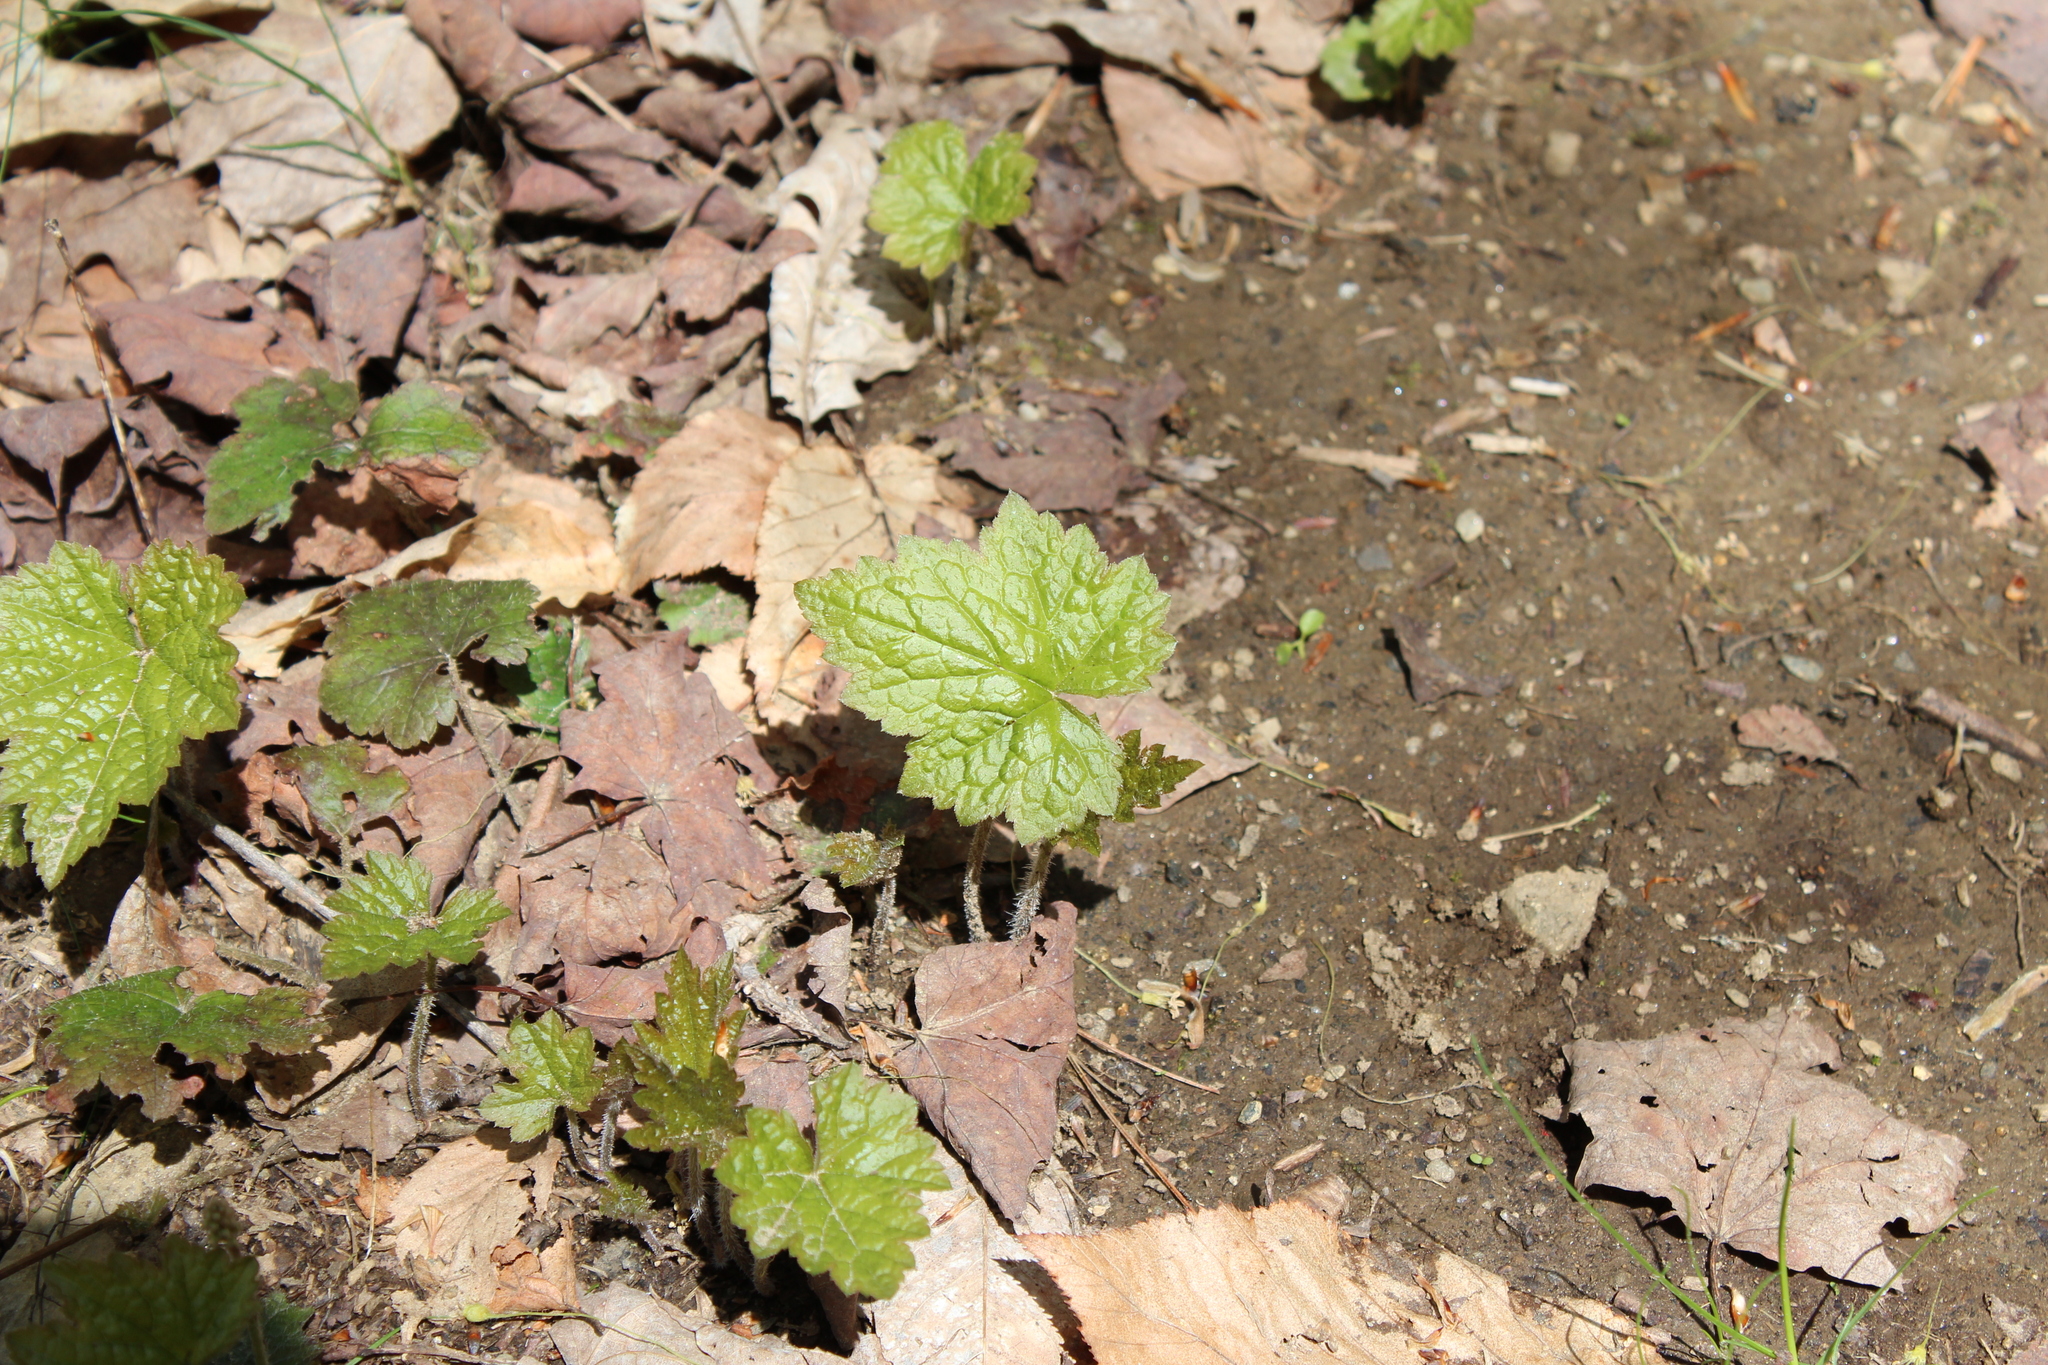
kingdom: Plantae
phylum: Tracheophyta
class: Magnoliopsida
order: Saxifragales
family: Saxifragaceae
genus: Tiarella
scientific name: Tiarella stolonifera
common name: Stoloniferous foamflower
